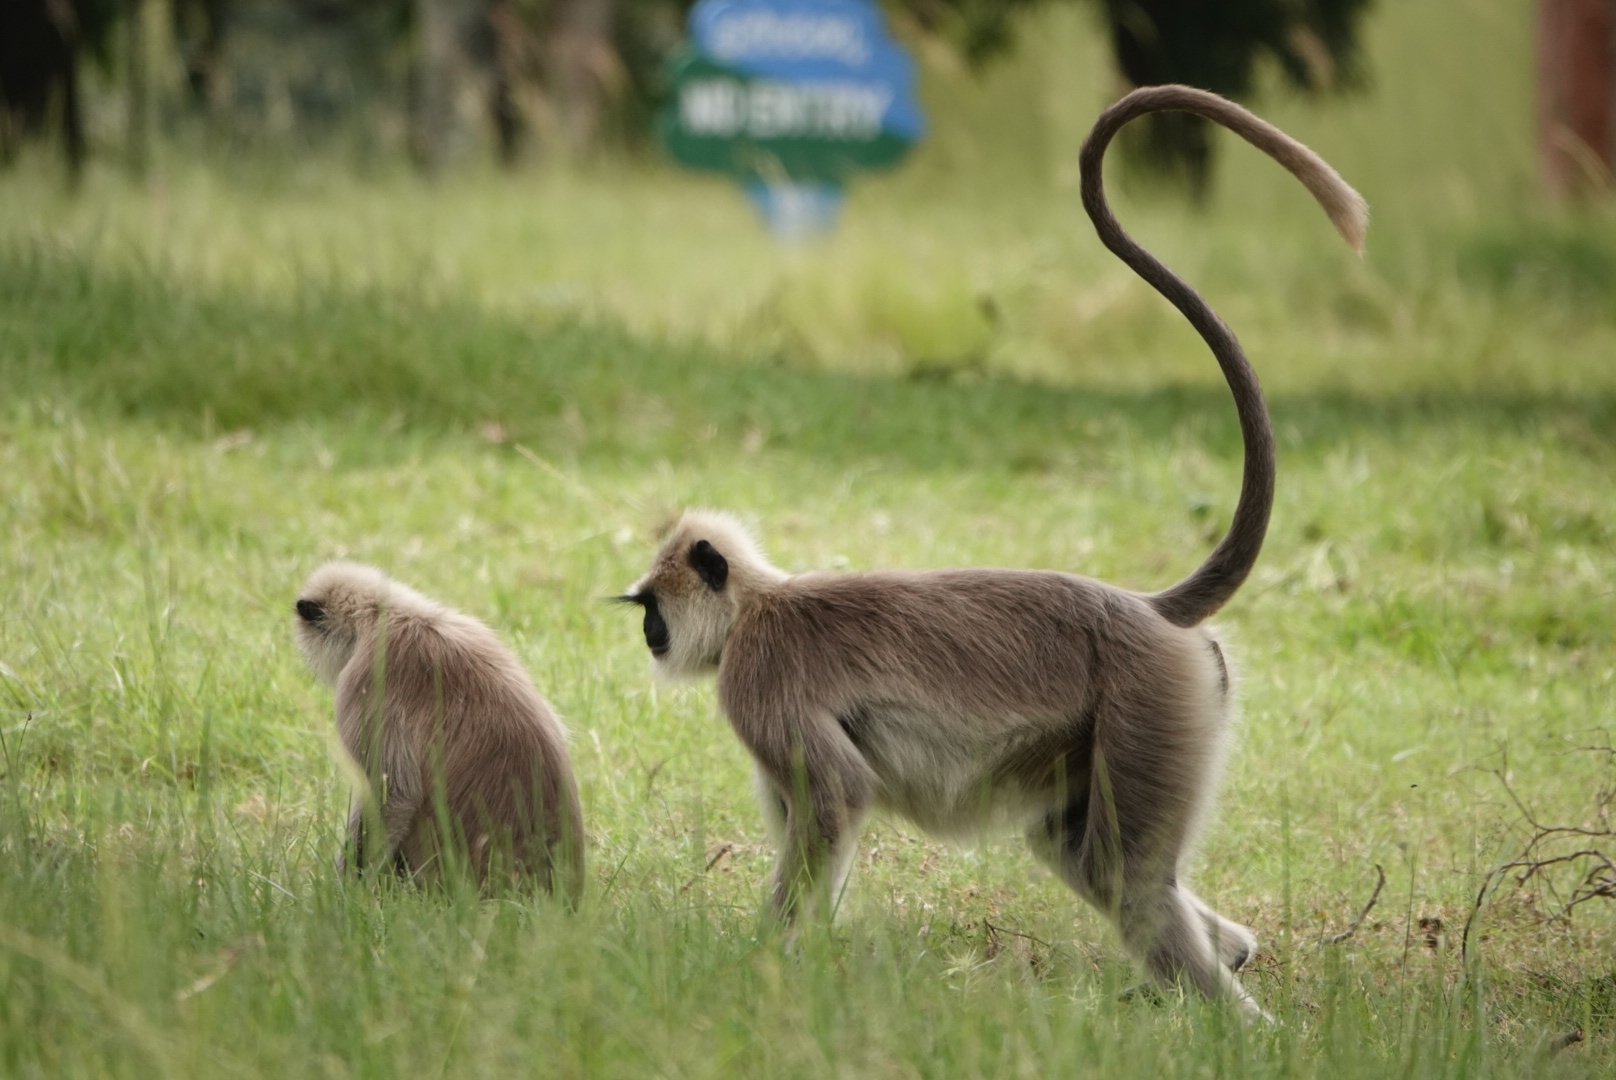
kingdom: Animalia
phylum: Chordata
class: Mammalia
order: Primates
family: Cercopithecidae
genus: Semnopithecus
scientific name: Semnopithecus priam
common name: Tufted gray langur
